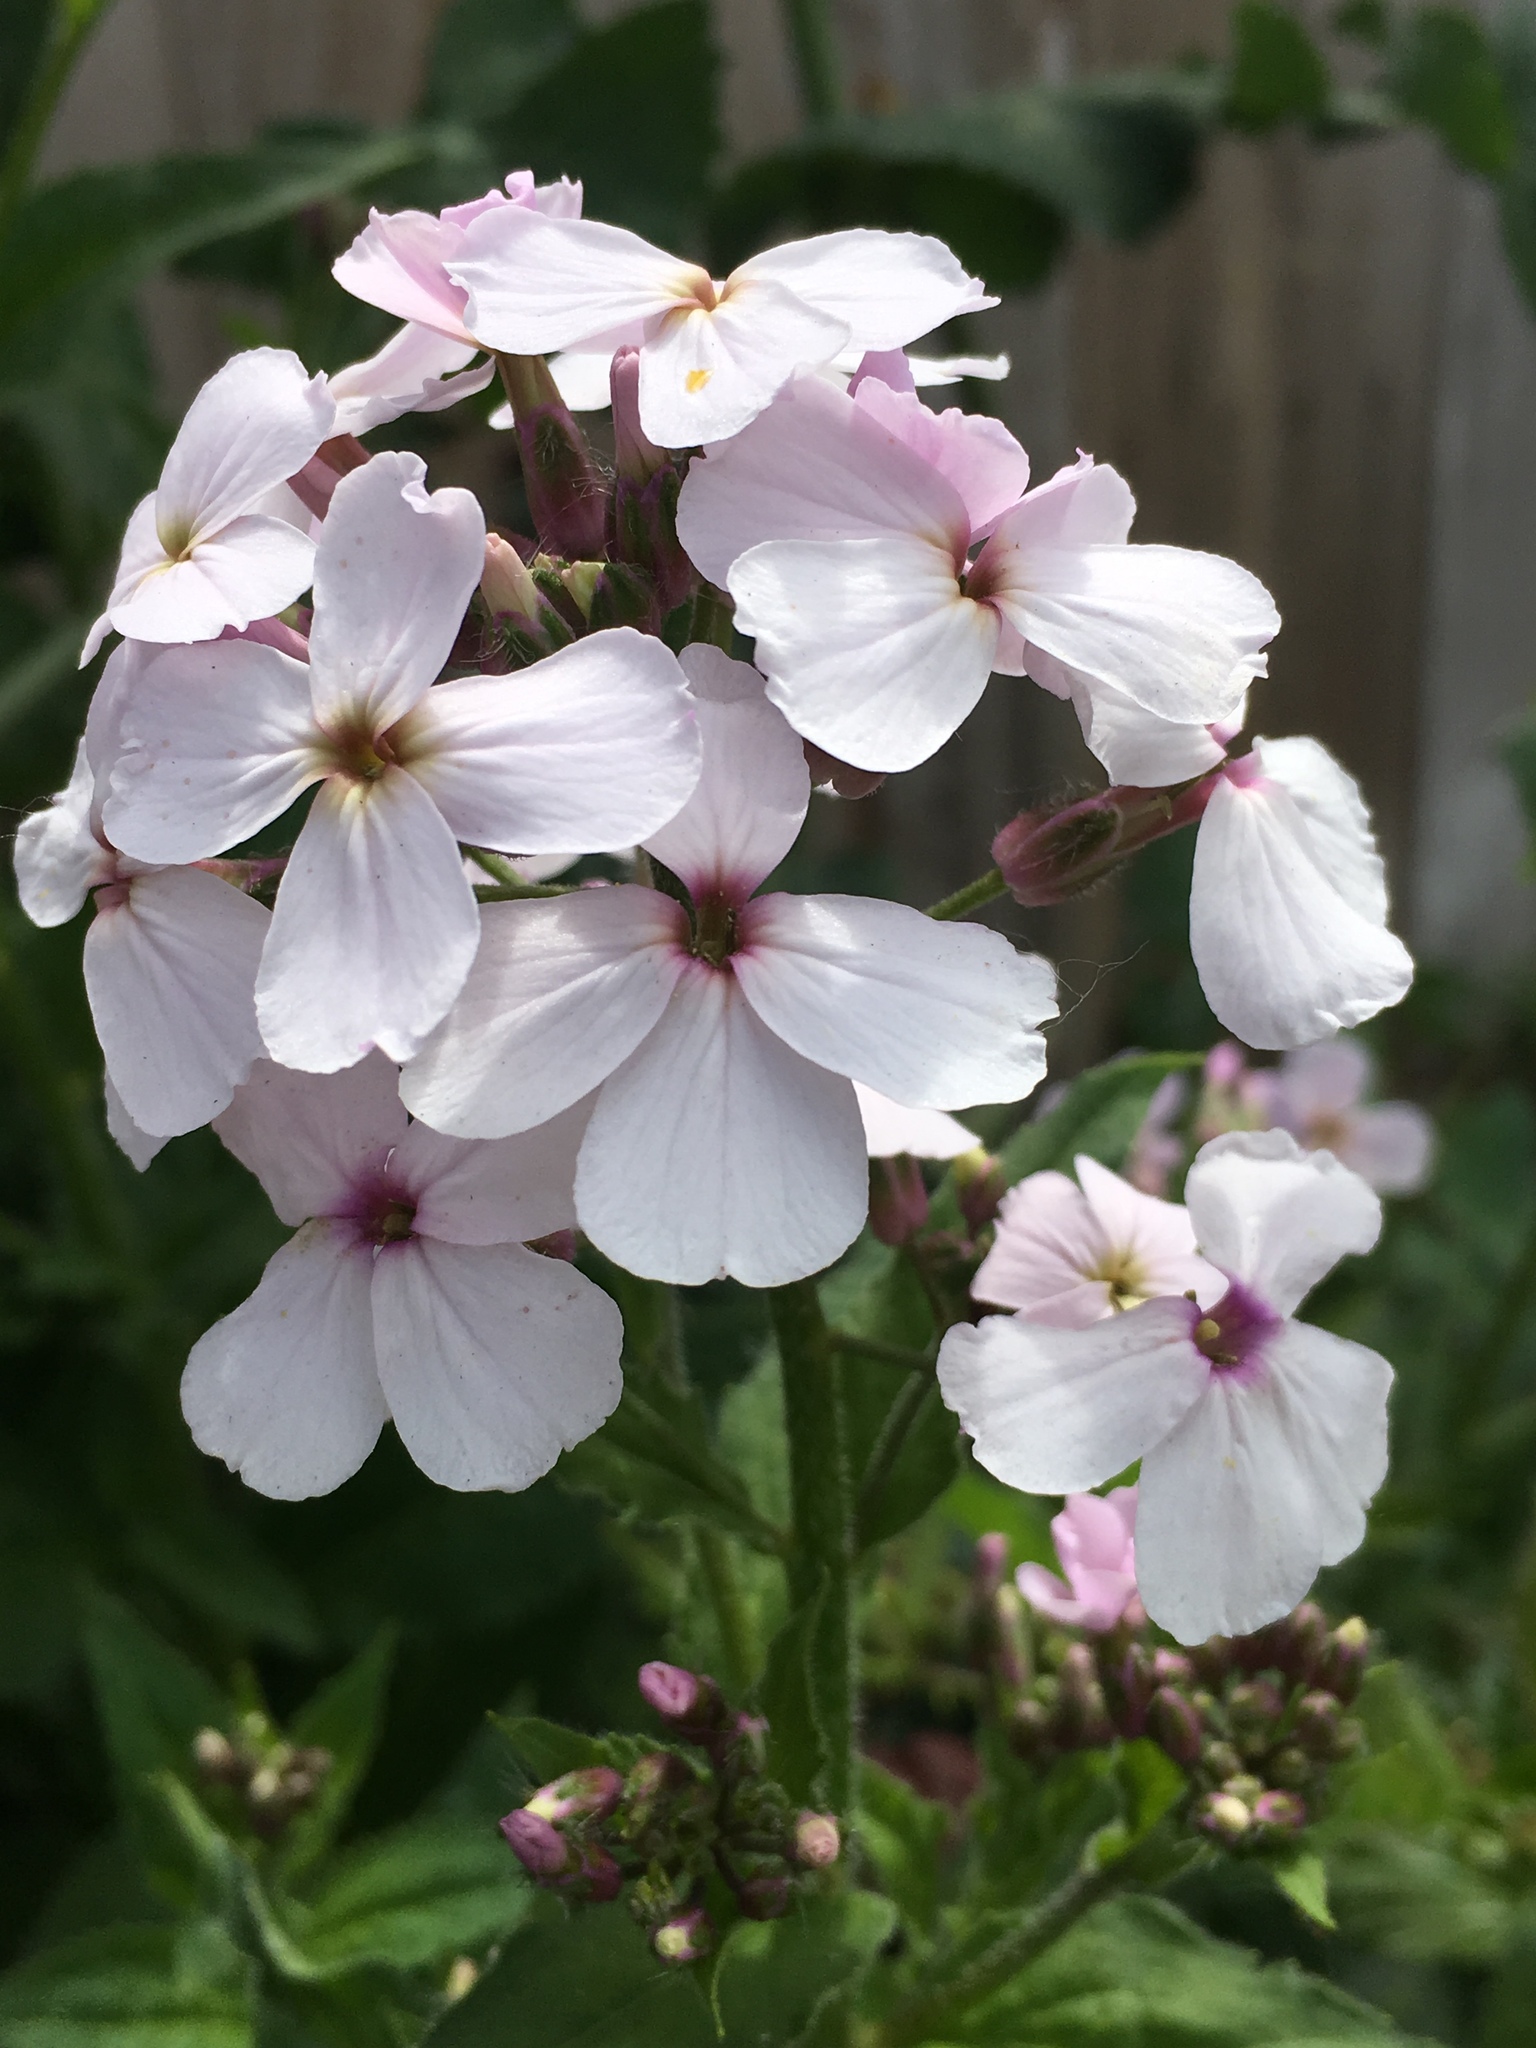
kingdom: Plantae
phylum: Tracheophyta
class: Magnoliopsida
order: Brassicales
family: Brassicaceae
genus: Hesperis
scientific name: Hesperis matronalis
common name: Dame's-violet
